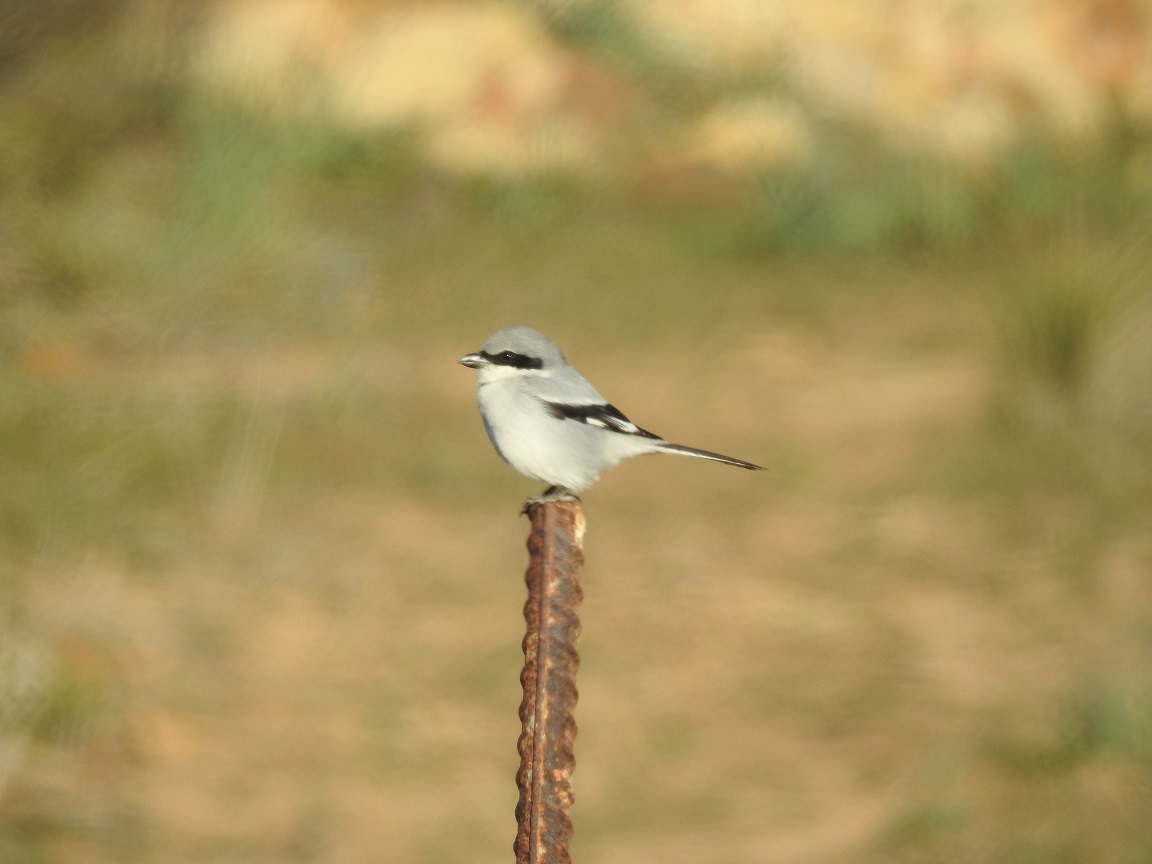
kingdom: Animalia
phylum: Chordata
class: Aves
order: Passeriformes
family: Laniidae
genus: Lanius
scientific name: Lanius excubitor
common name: Great grey shrike
